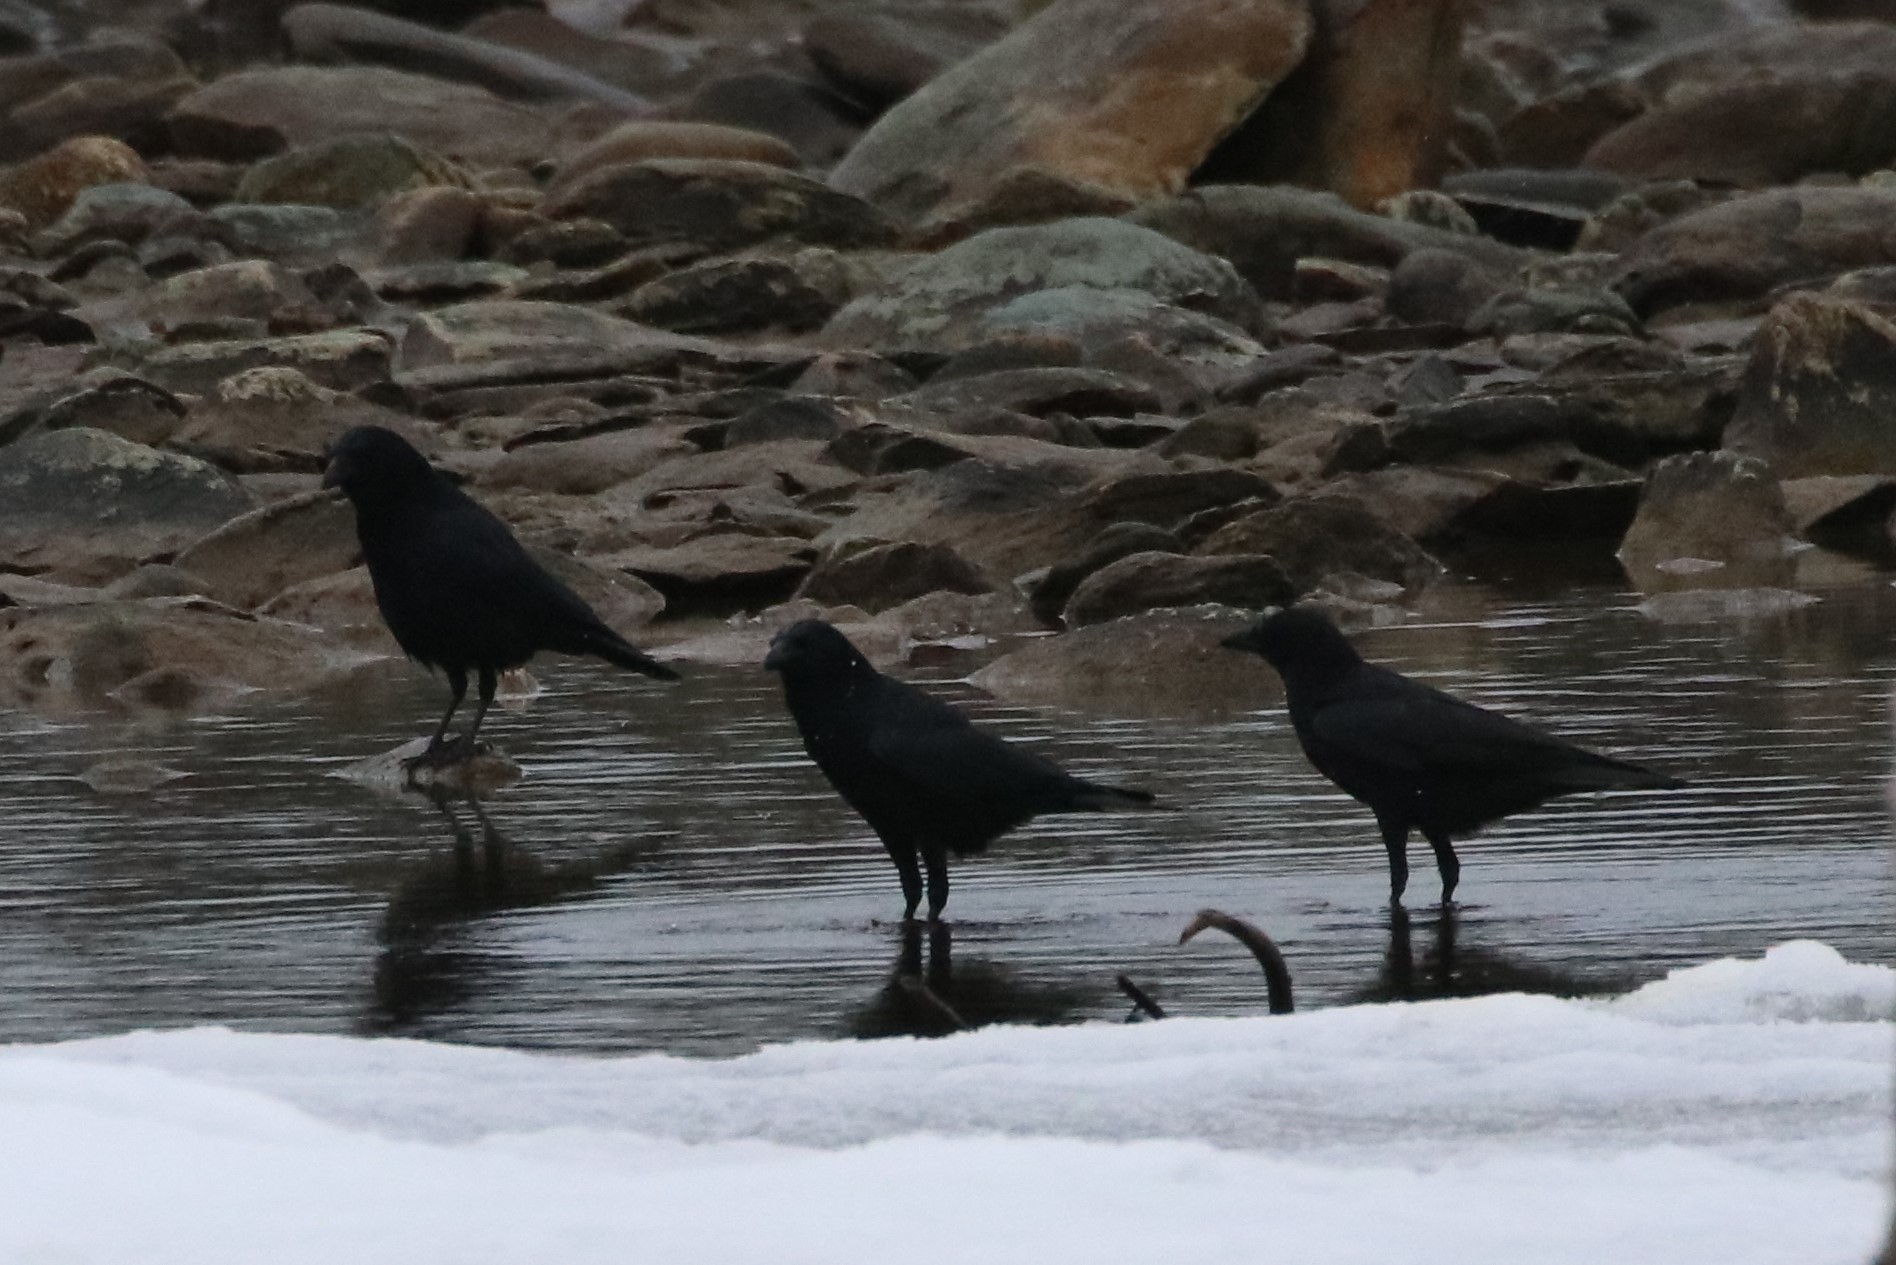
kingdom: Animalia
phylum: Chordata
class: Aves
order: Passeriformes
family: Corvidae
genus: Corvus
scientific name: Corvus brachyrhynchos
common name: American crow
